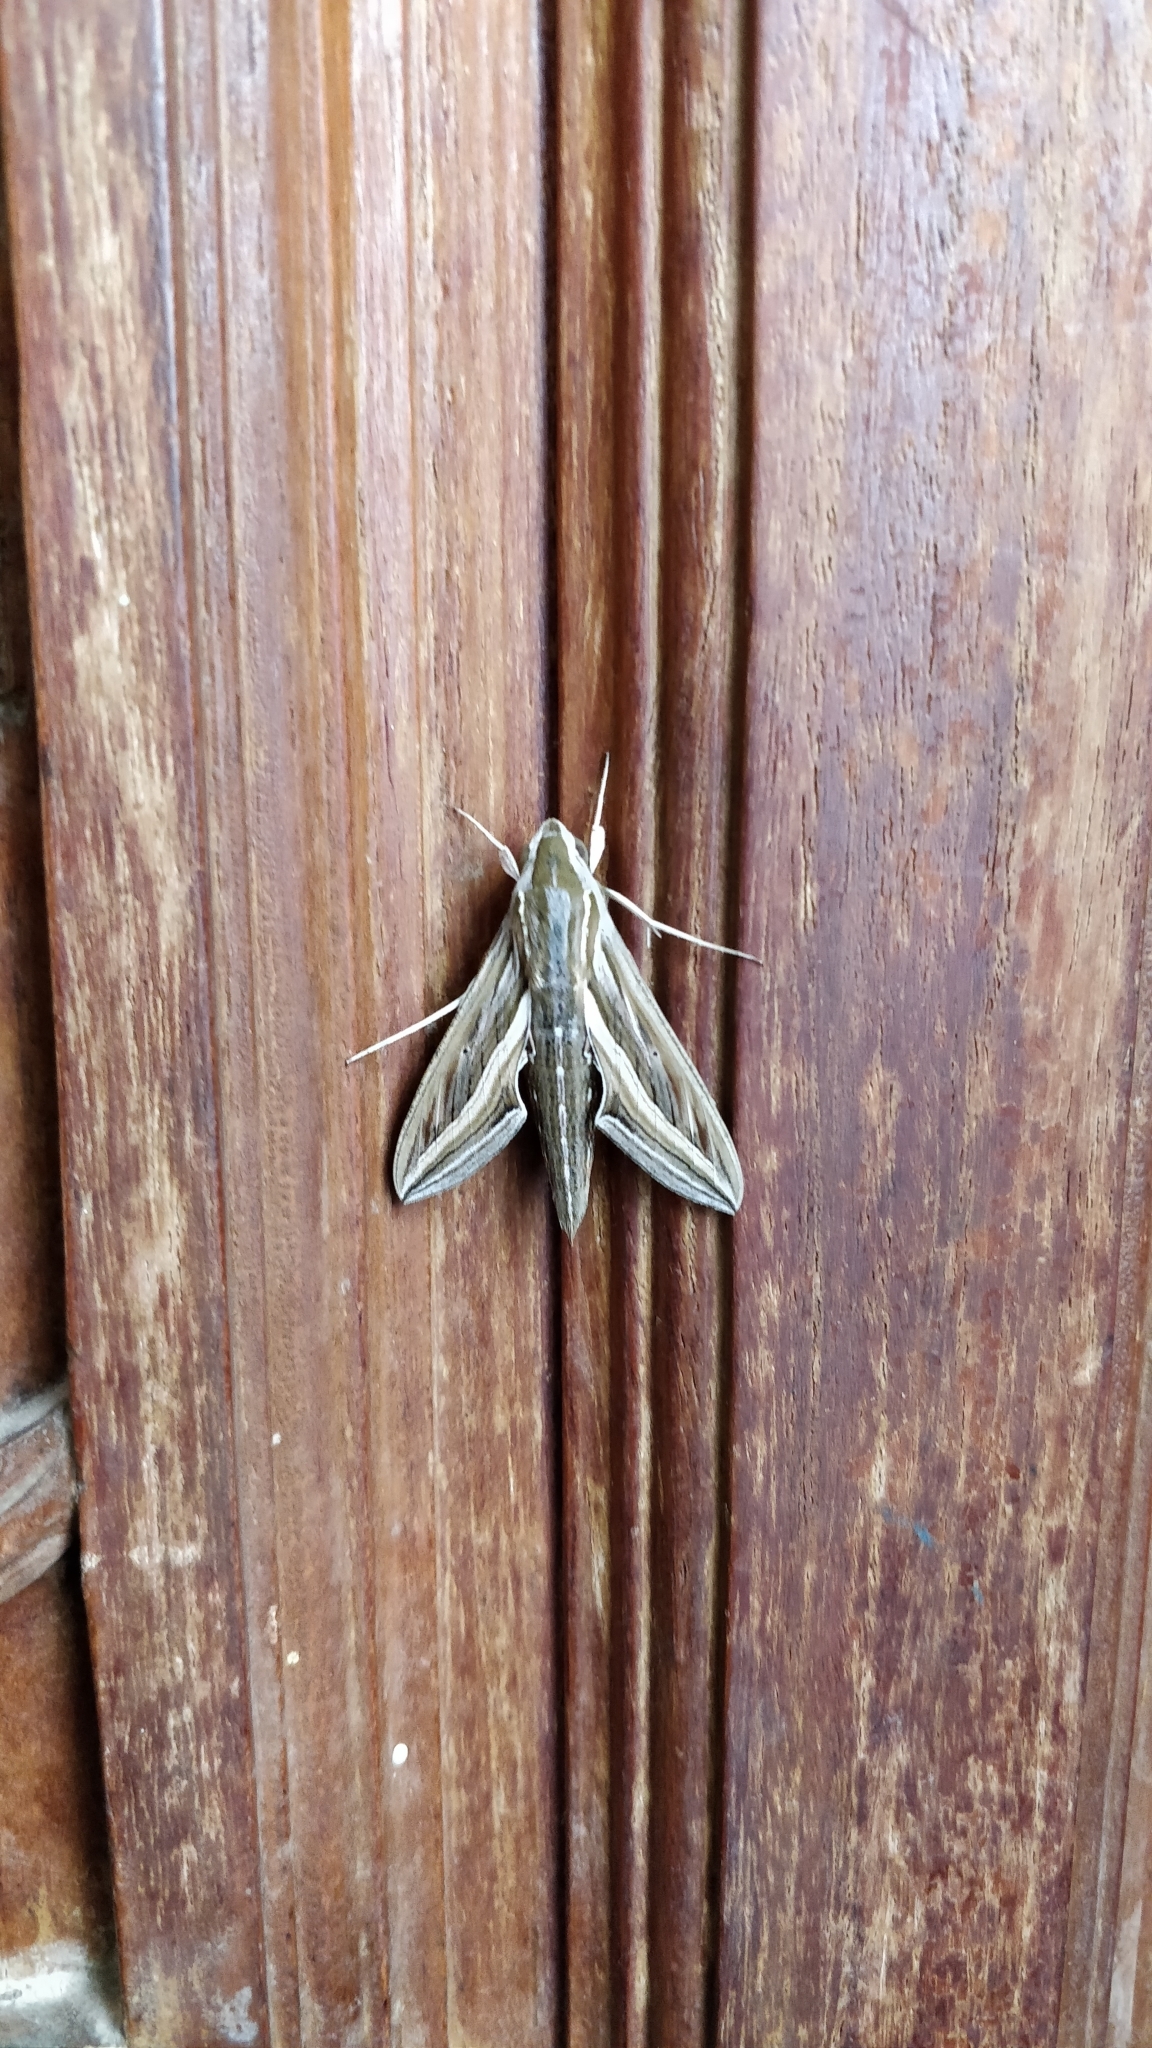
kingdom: Animalia
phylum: Arthropoda
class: Insecta
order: Lepidoptera
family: Sphingidae
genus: Hippotion
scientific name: Hippotion celerio
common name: Silver-striped hawk-moth
